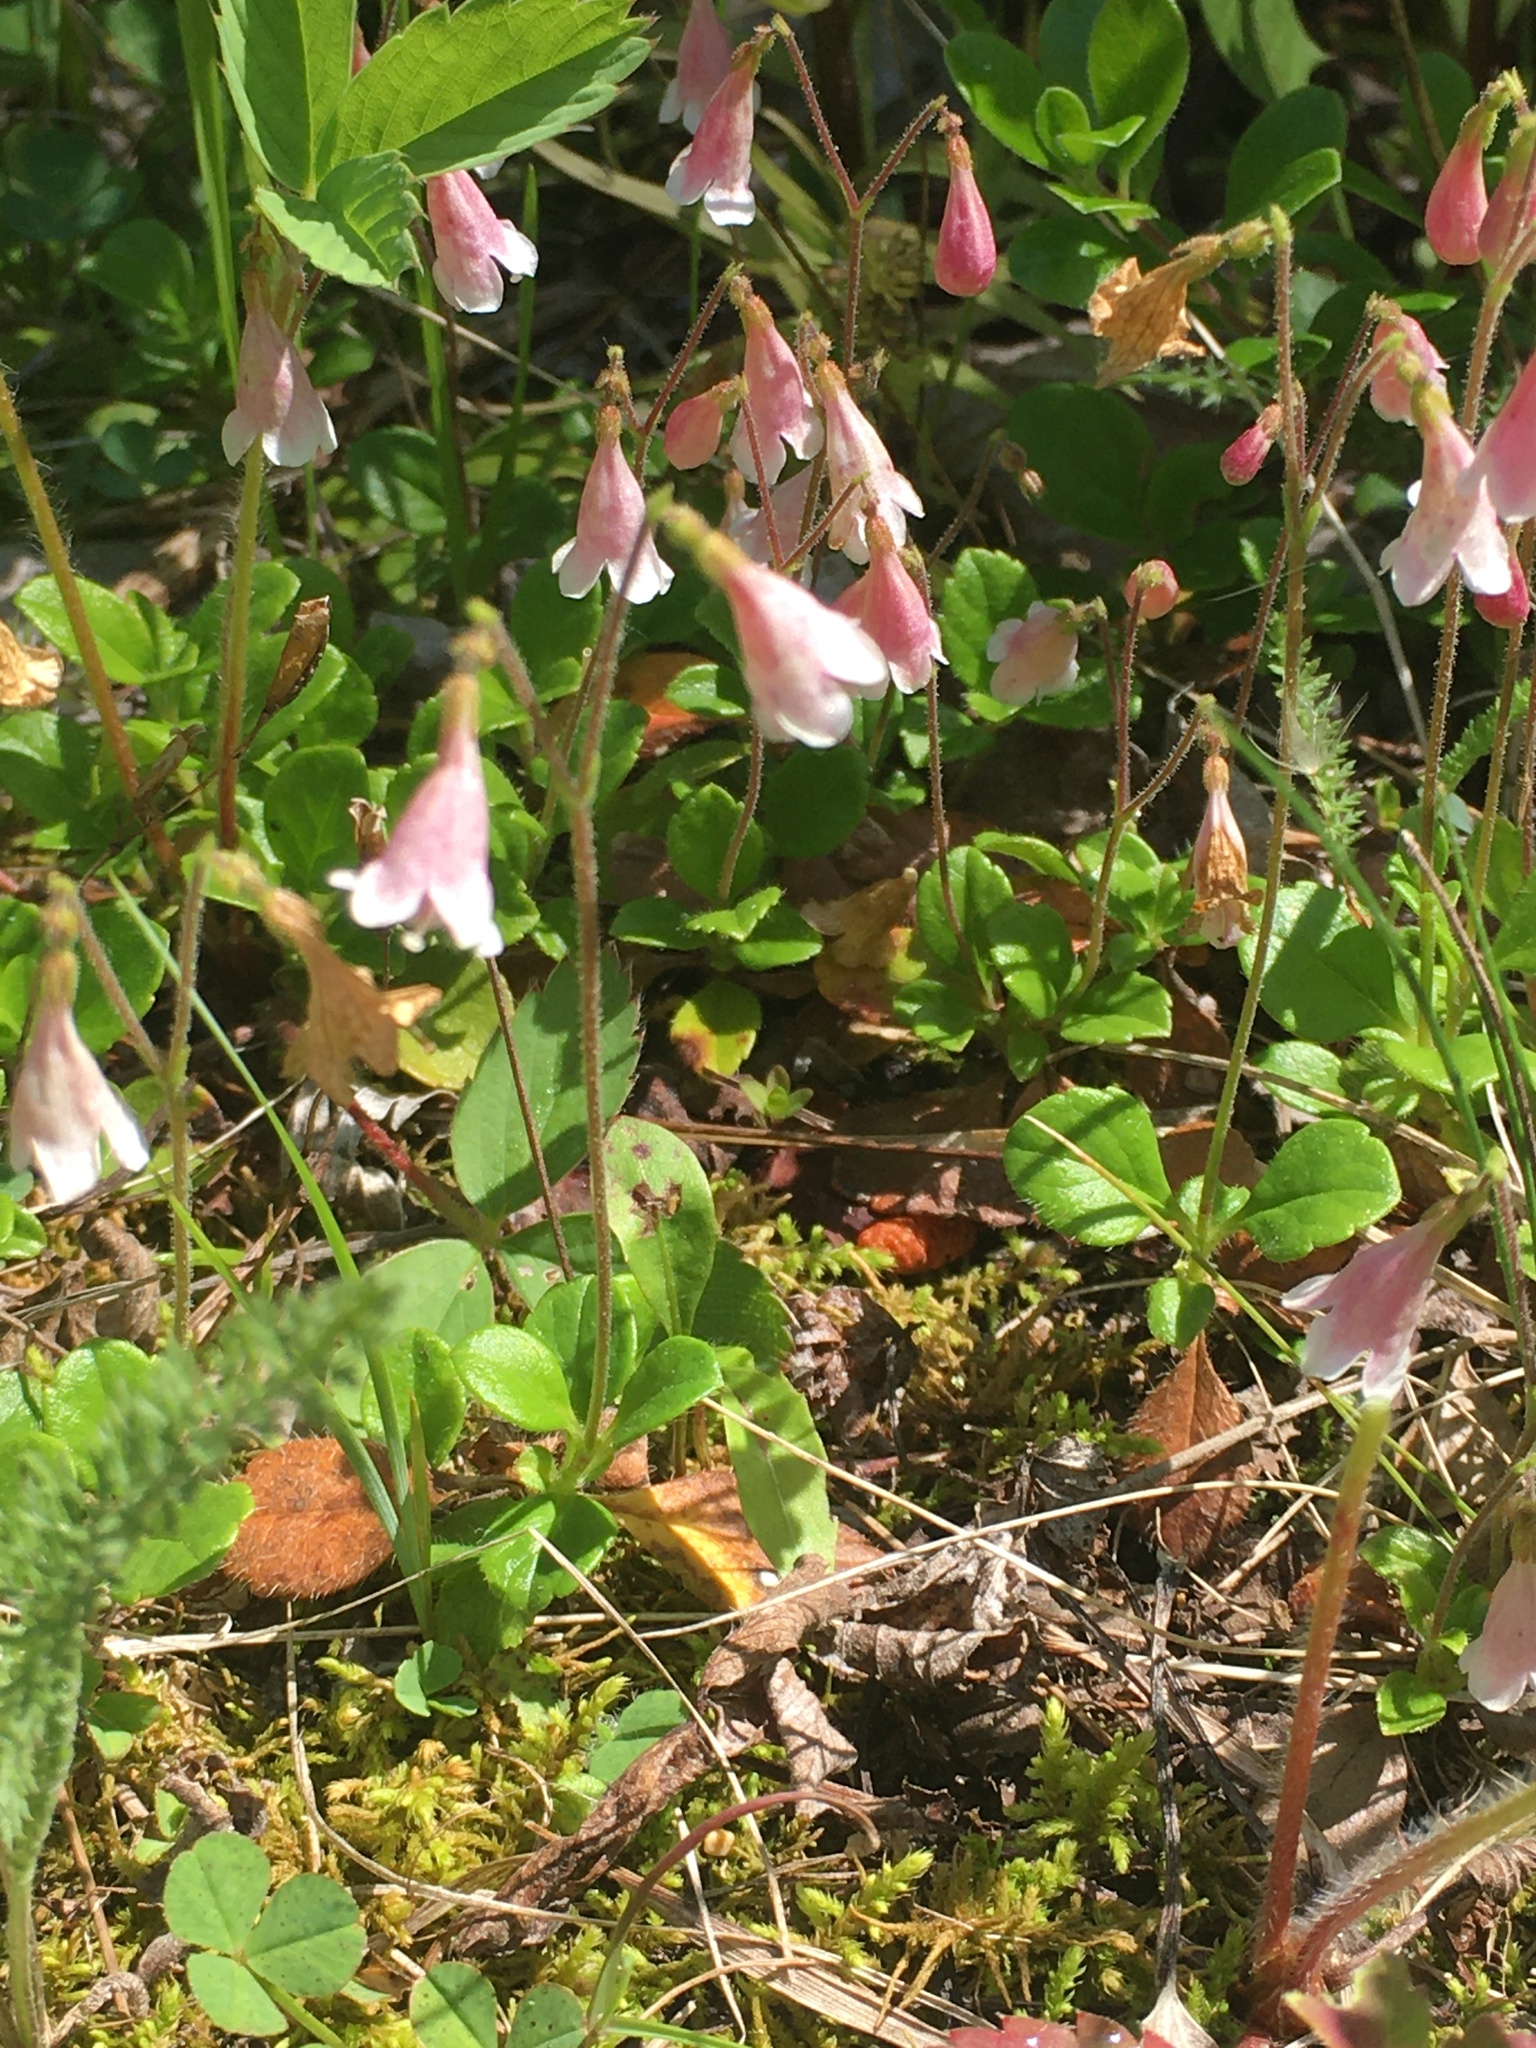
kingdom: Plantae
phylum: Tracheophyta
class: Magnoliopsida
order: Dipsacales
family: Caprifoliaceae
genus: Linnaea
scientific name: Linnaea borealis
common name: Twinflower
